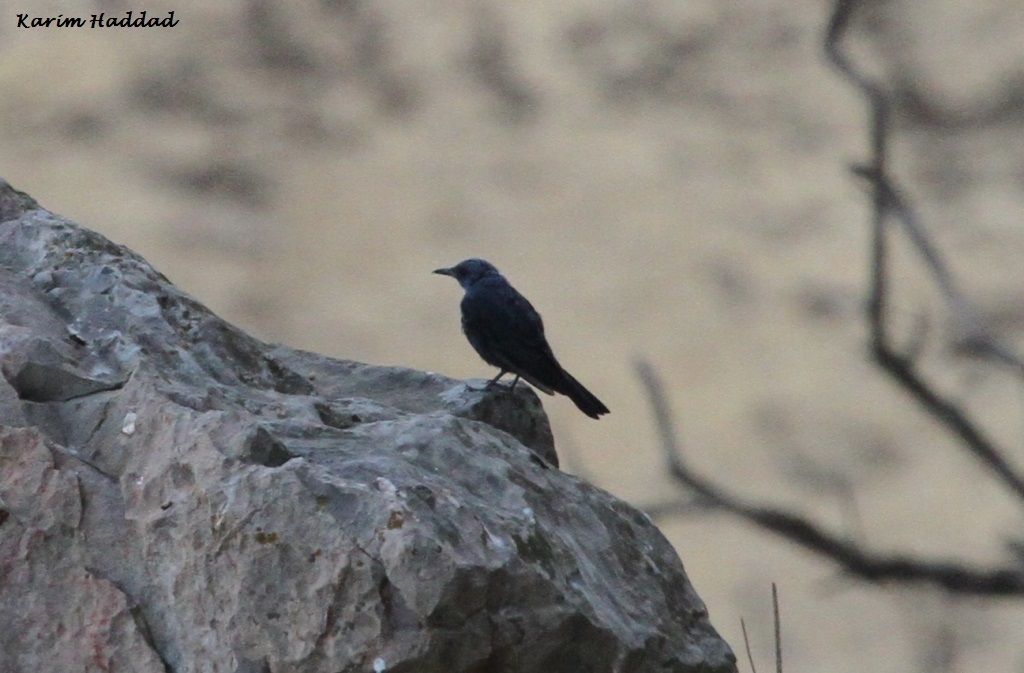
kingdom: Animalia
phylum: Chordata
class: Aves
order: Passeriformes
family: Muscicapidae
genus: Monticola
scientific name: Monticola solitarius
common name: Blue rock thrush
